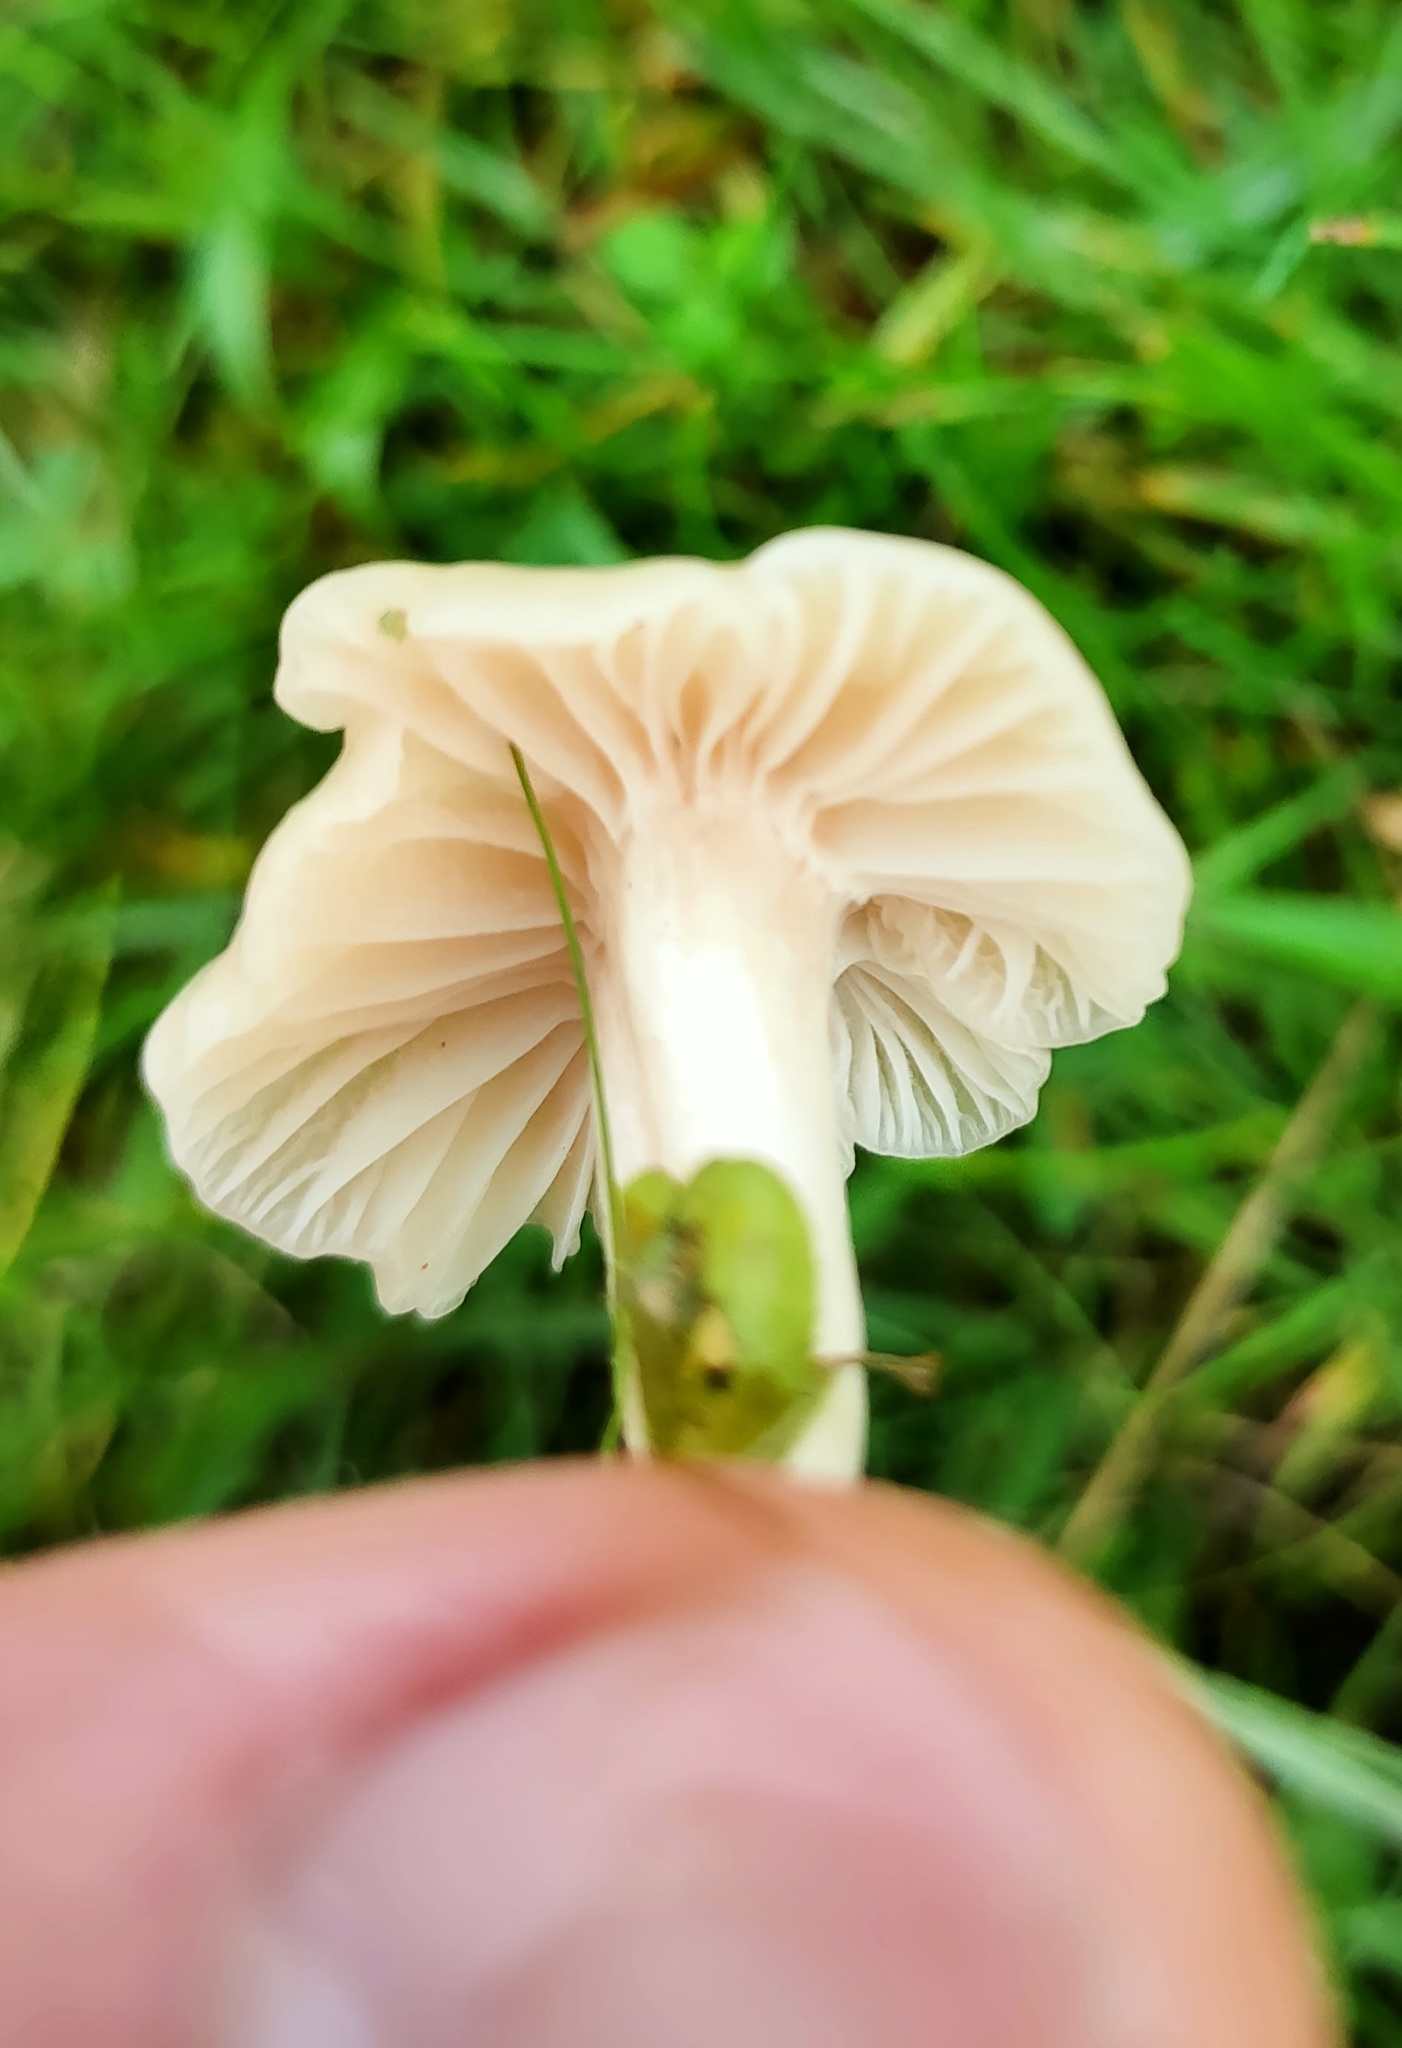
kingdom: Fungi
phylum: Basidiomycota
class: Agaricomycetes
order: Agaricales
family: Hygrophoraceae
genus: Cuphophyllus
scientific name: Cuphophyllus virgineus
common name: Snowy waxcap
